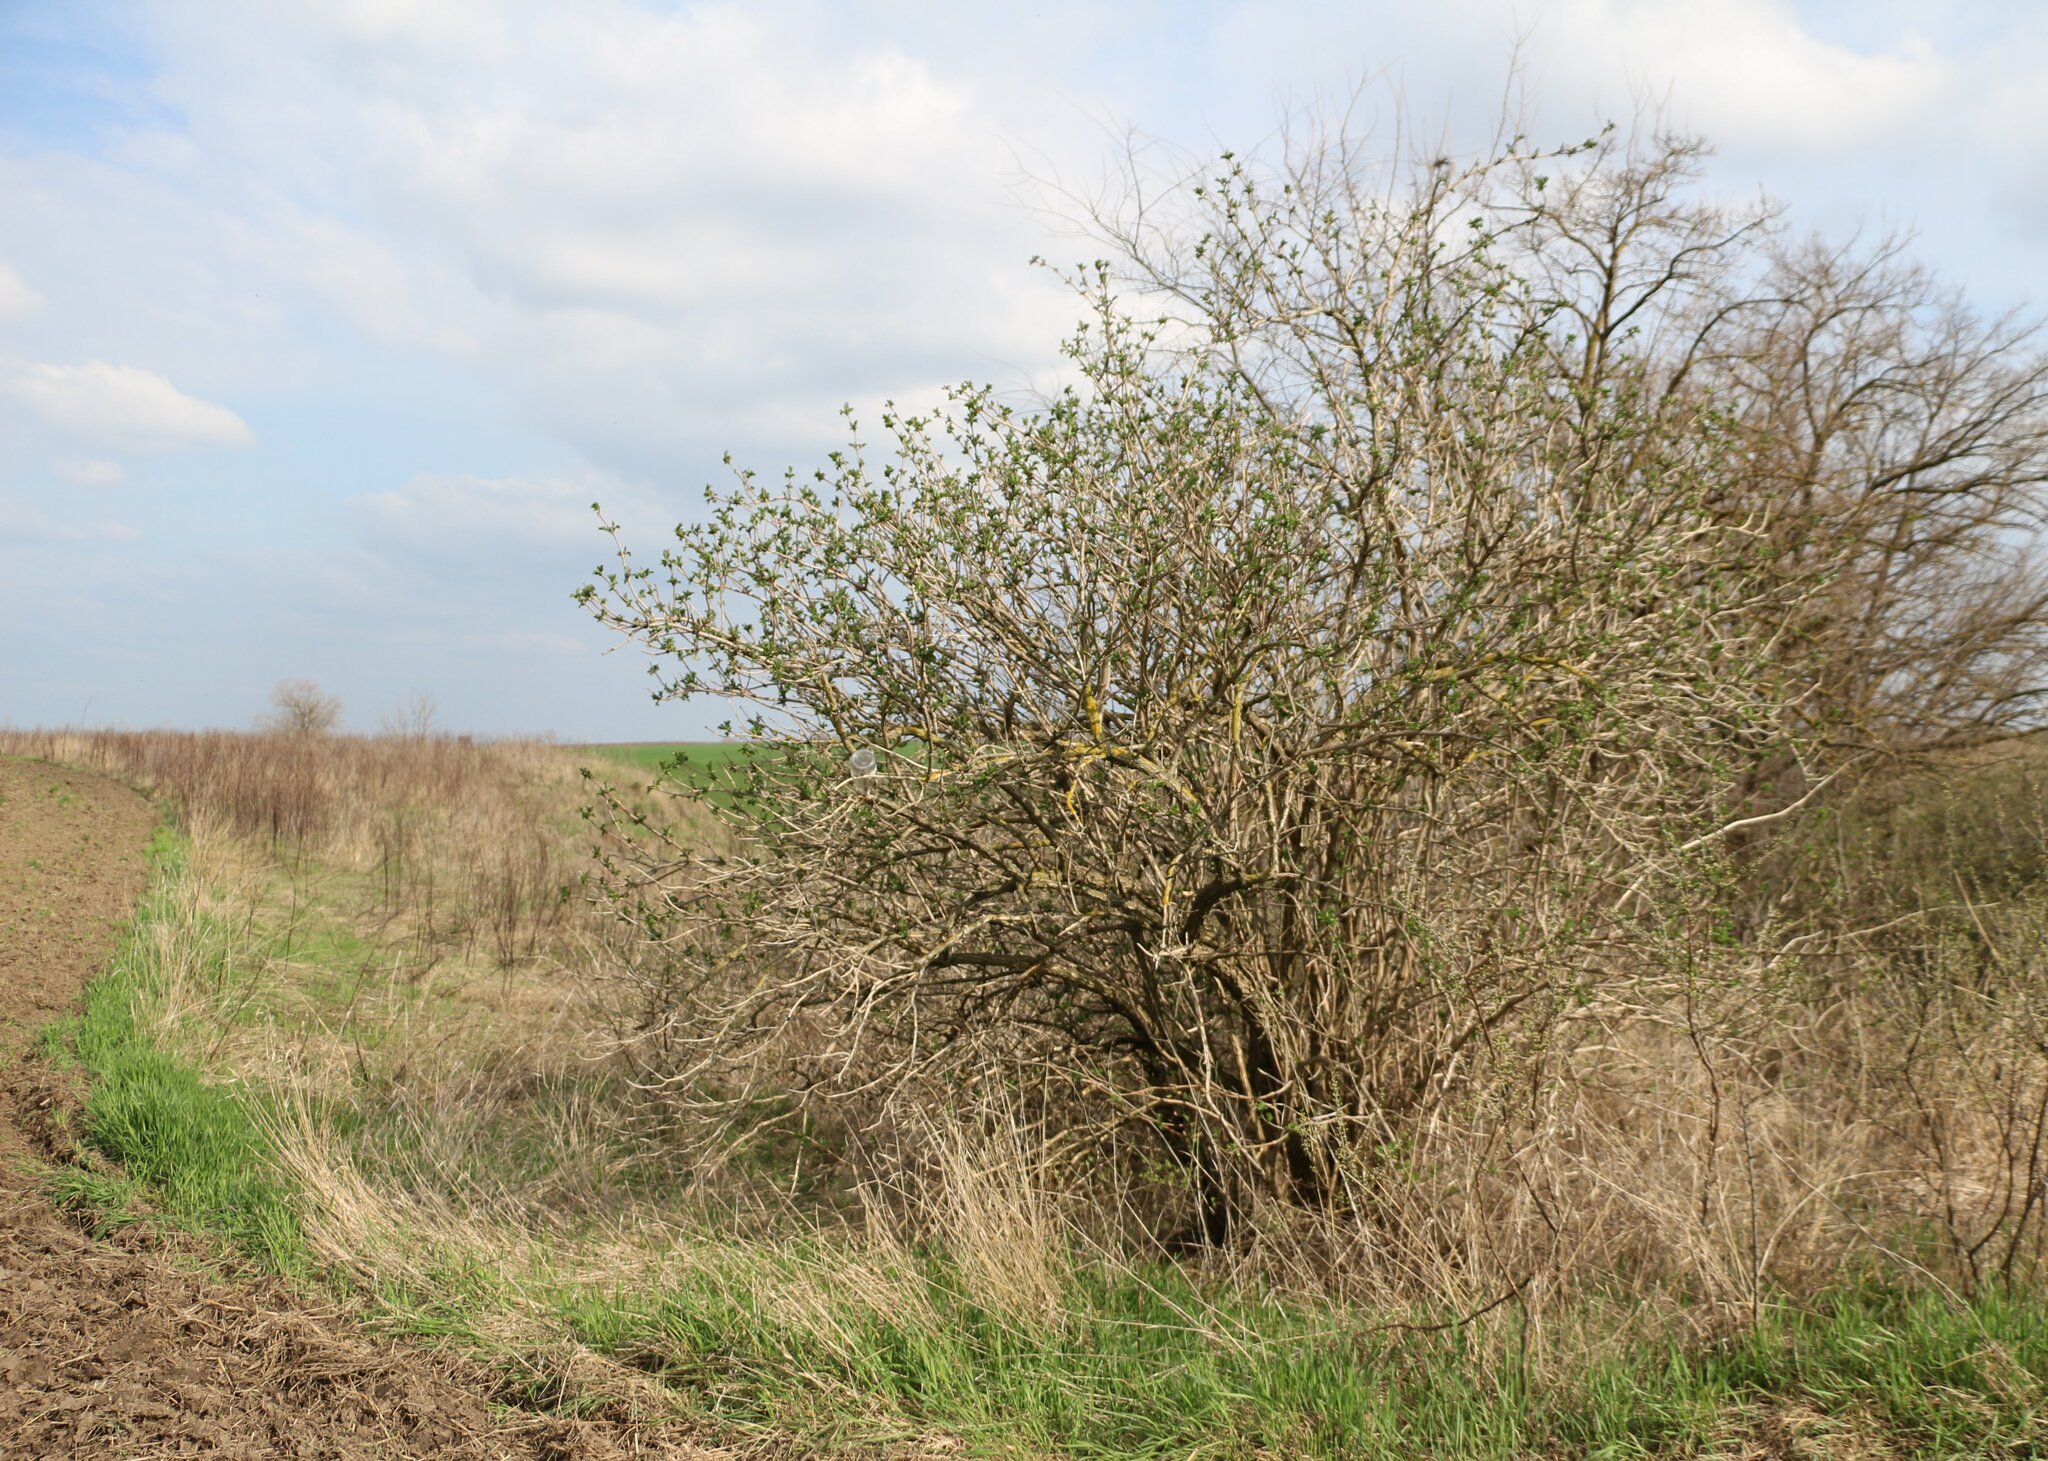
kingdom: Plantae
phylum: Tracheophyta
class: Magnoliopsida
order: Dipsacales
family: Viburnaceae
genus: Sambucus
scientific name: Sambucus nigra
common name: Elder
